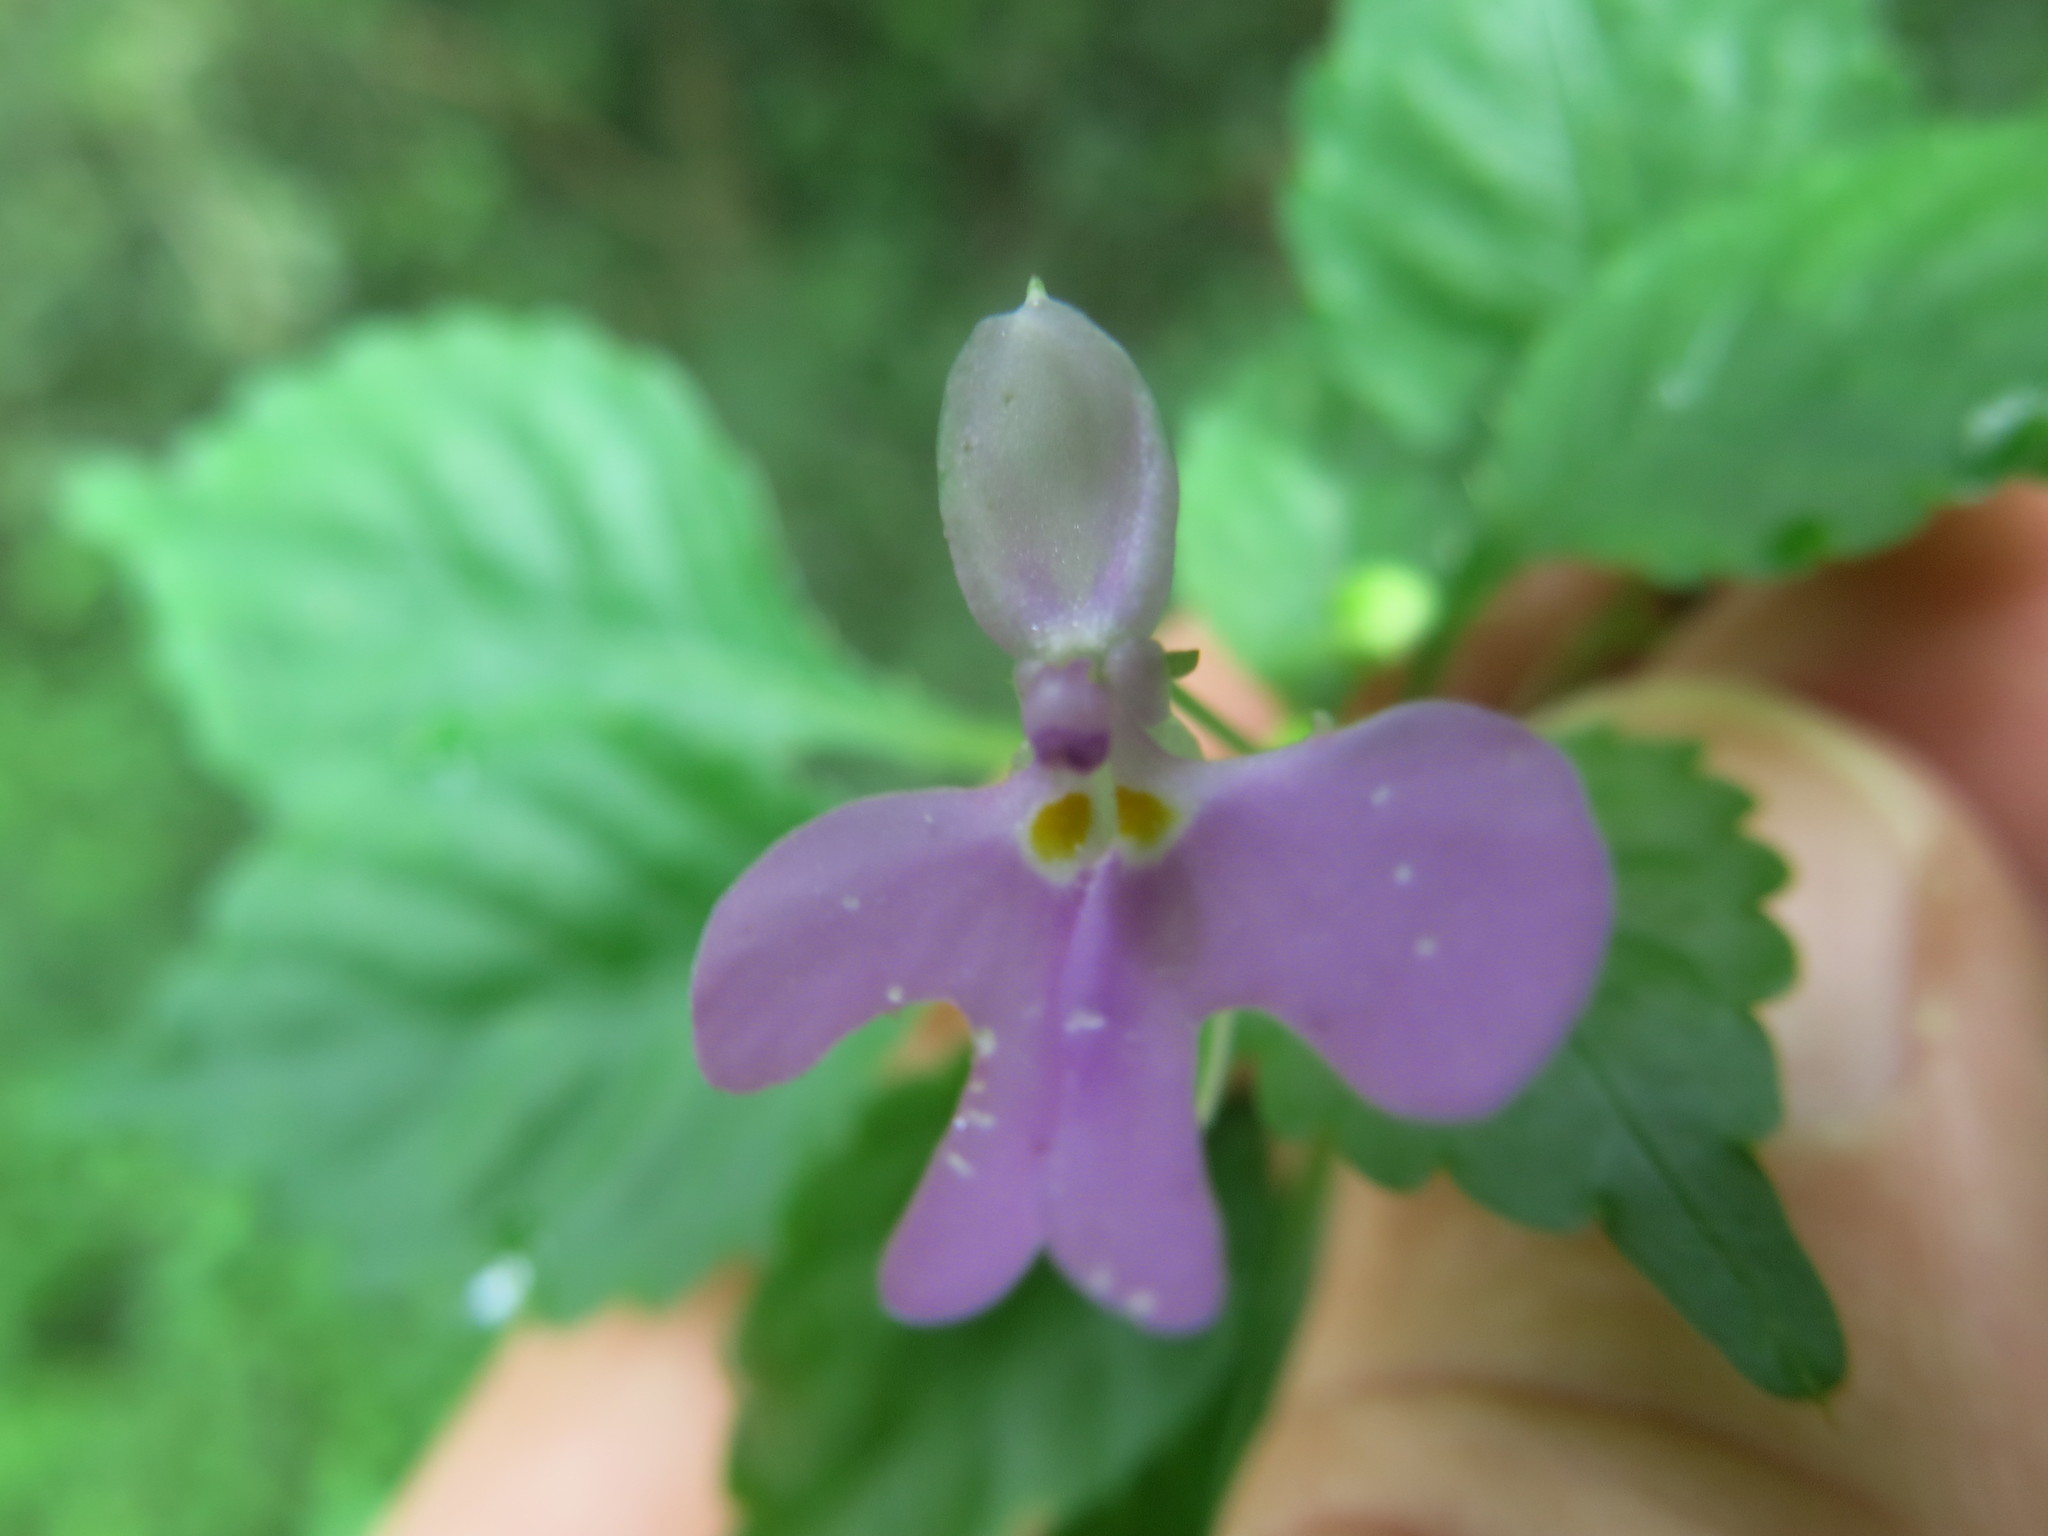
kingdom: Plantae
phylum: Tracheophyta
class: Magnoliopsida
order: Ericales
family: Balsaminaceae
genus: Impatiens
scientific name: Impatiens hochstetteri
